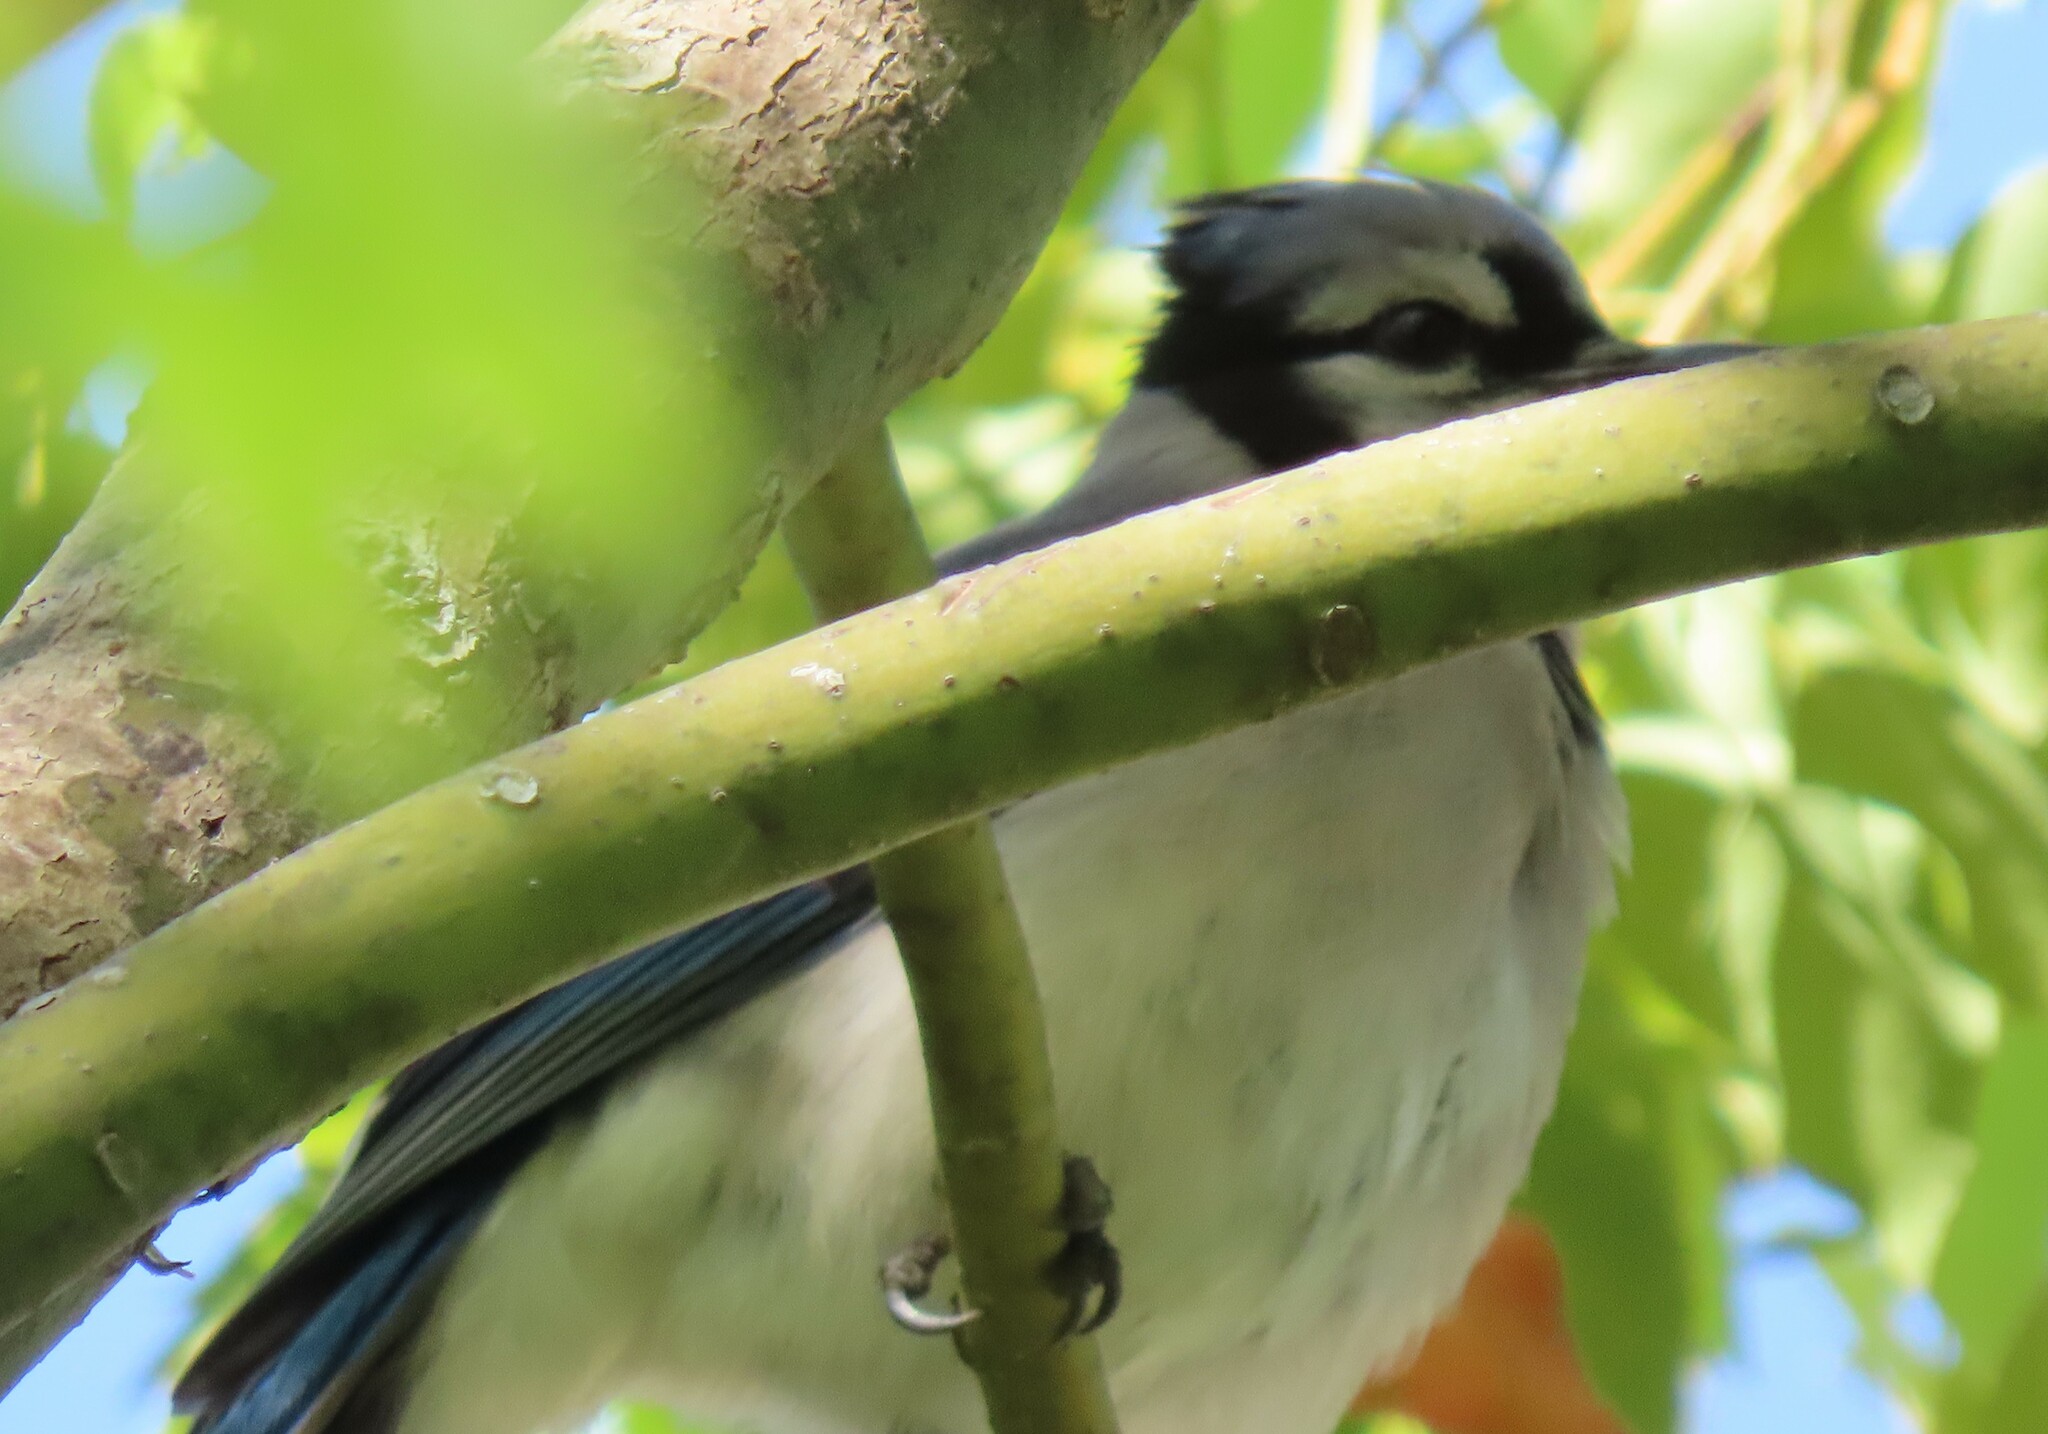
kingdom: Animalia
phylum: Chordata
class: Aves
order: Passeriformes
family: Corvidae
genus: Cyanocitta
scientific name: Cyanocitta cristata
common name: Blue jay
